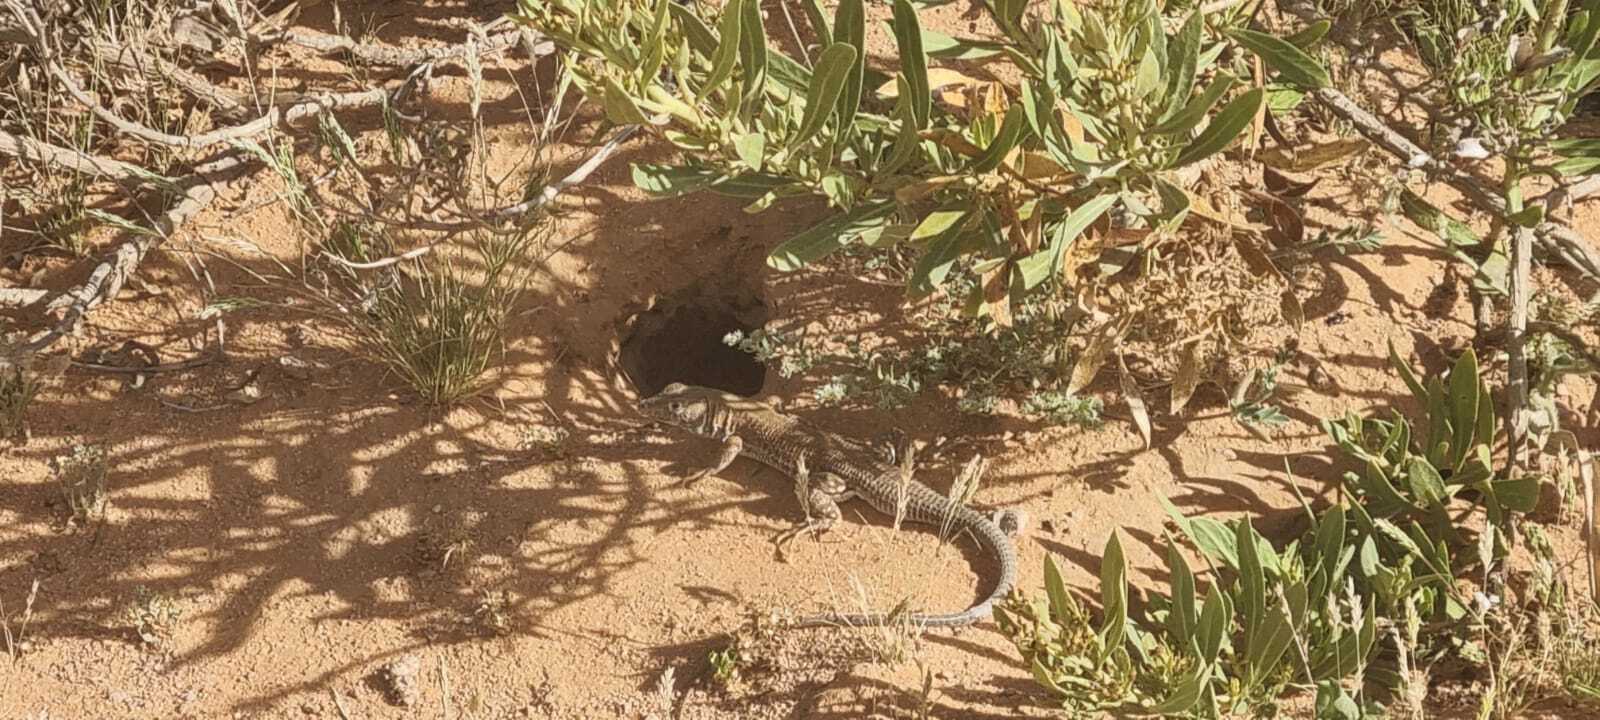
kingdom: Animalia
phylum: Chordata
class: Squamata
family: Lacertidae
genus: Acanthodactylus
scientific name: Acanthodactylus boskianus
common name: Bosc’s fringe-toed lizard
